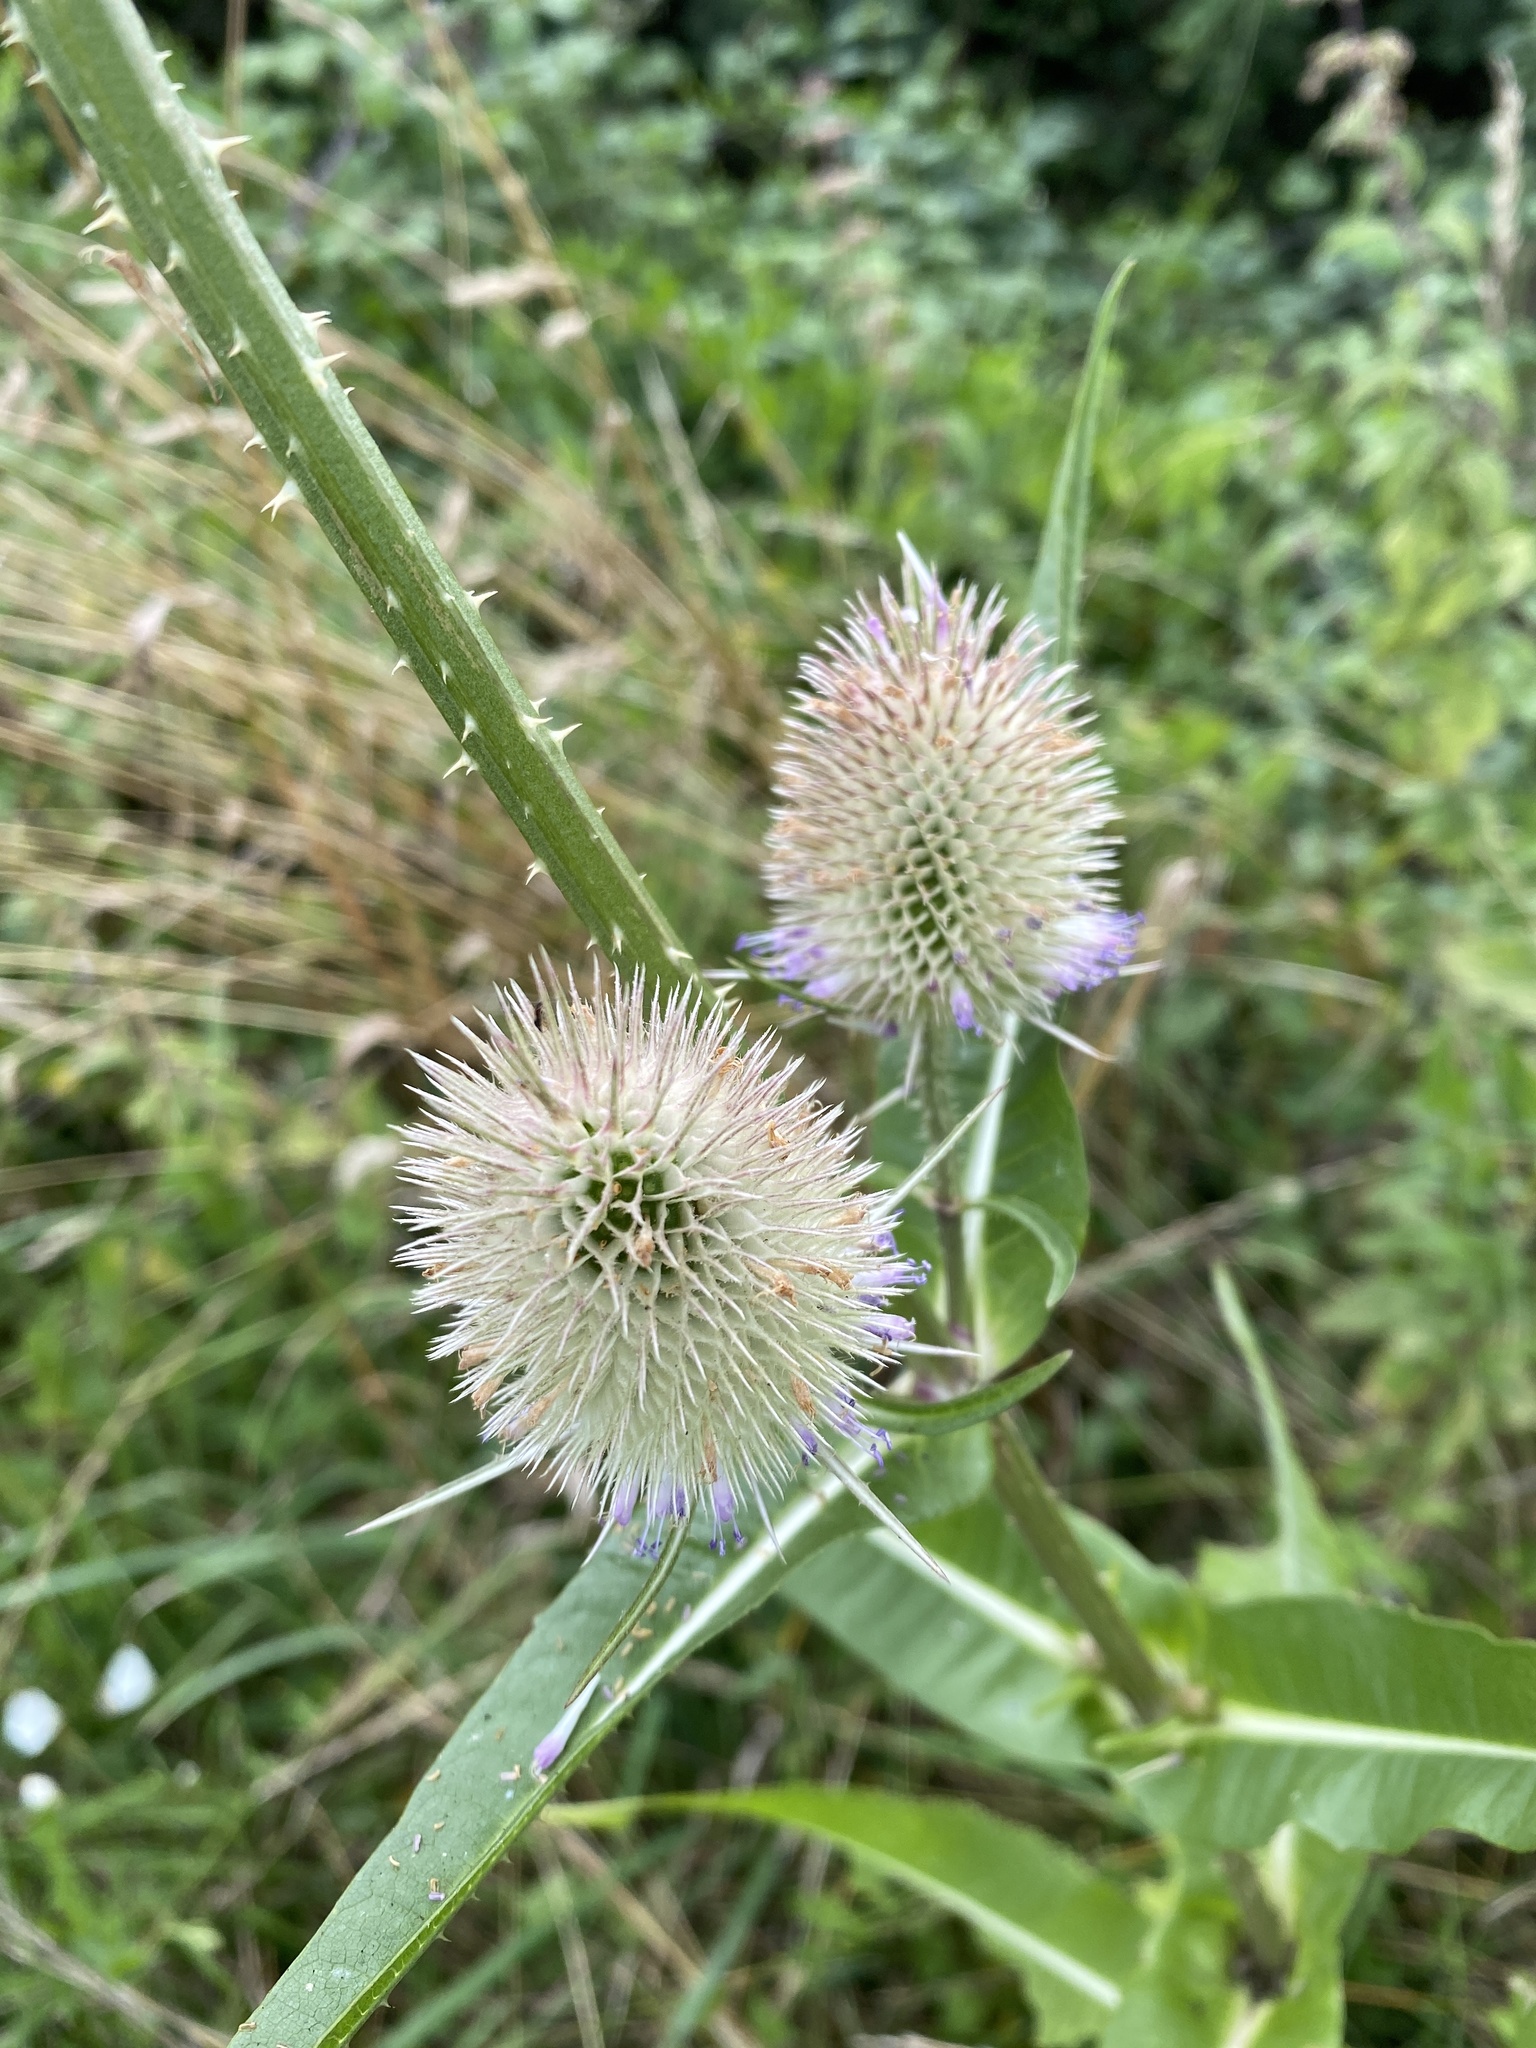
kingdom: Plantae
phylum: Tracheophyta
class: Magnoliopsida
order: Dipsacales
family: Caprifoliaceae
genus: Dipsacus
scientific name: Dipsacus fullonum
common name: Teasel
